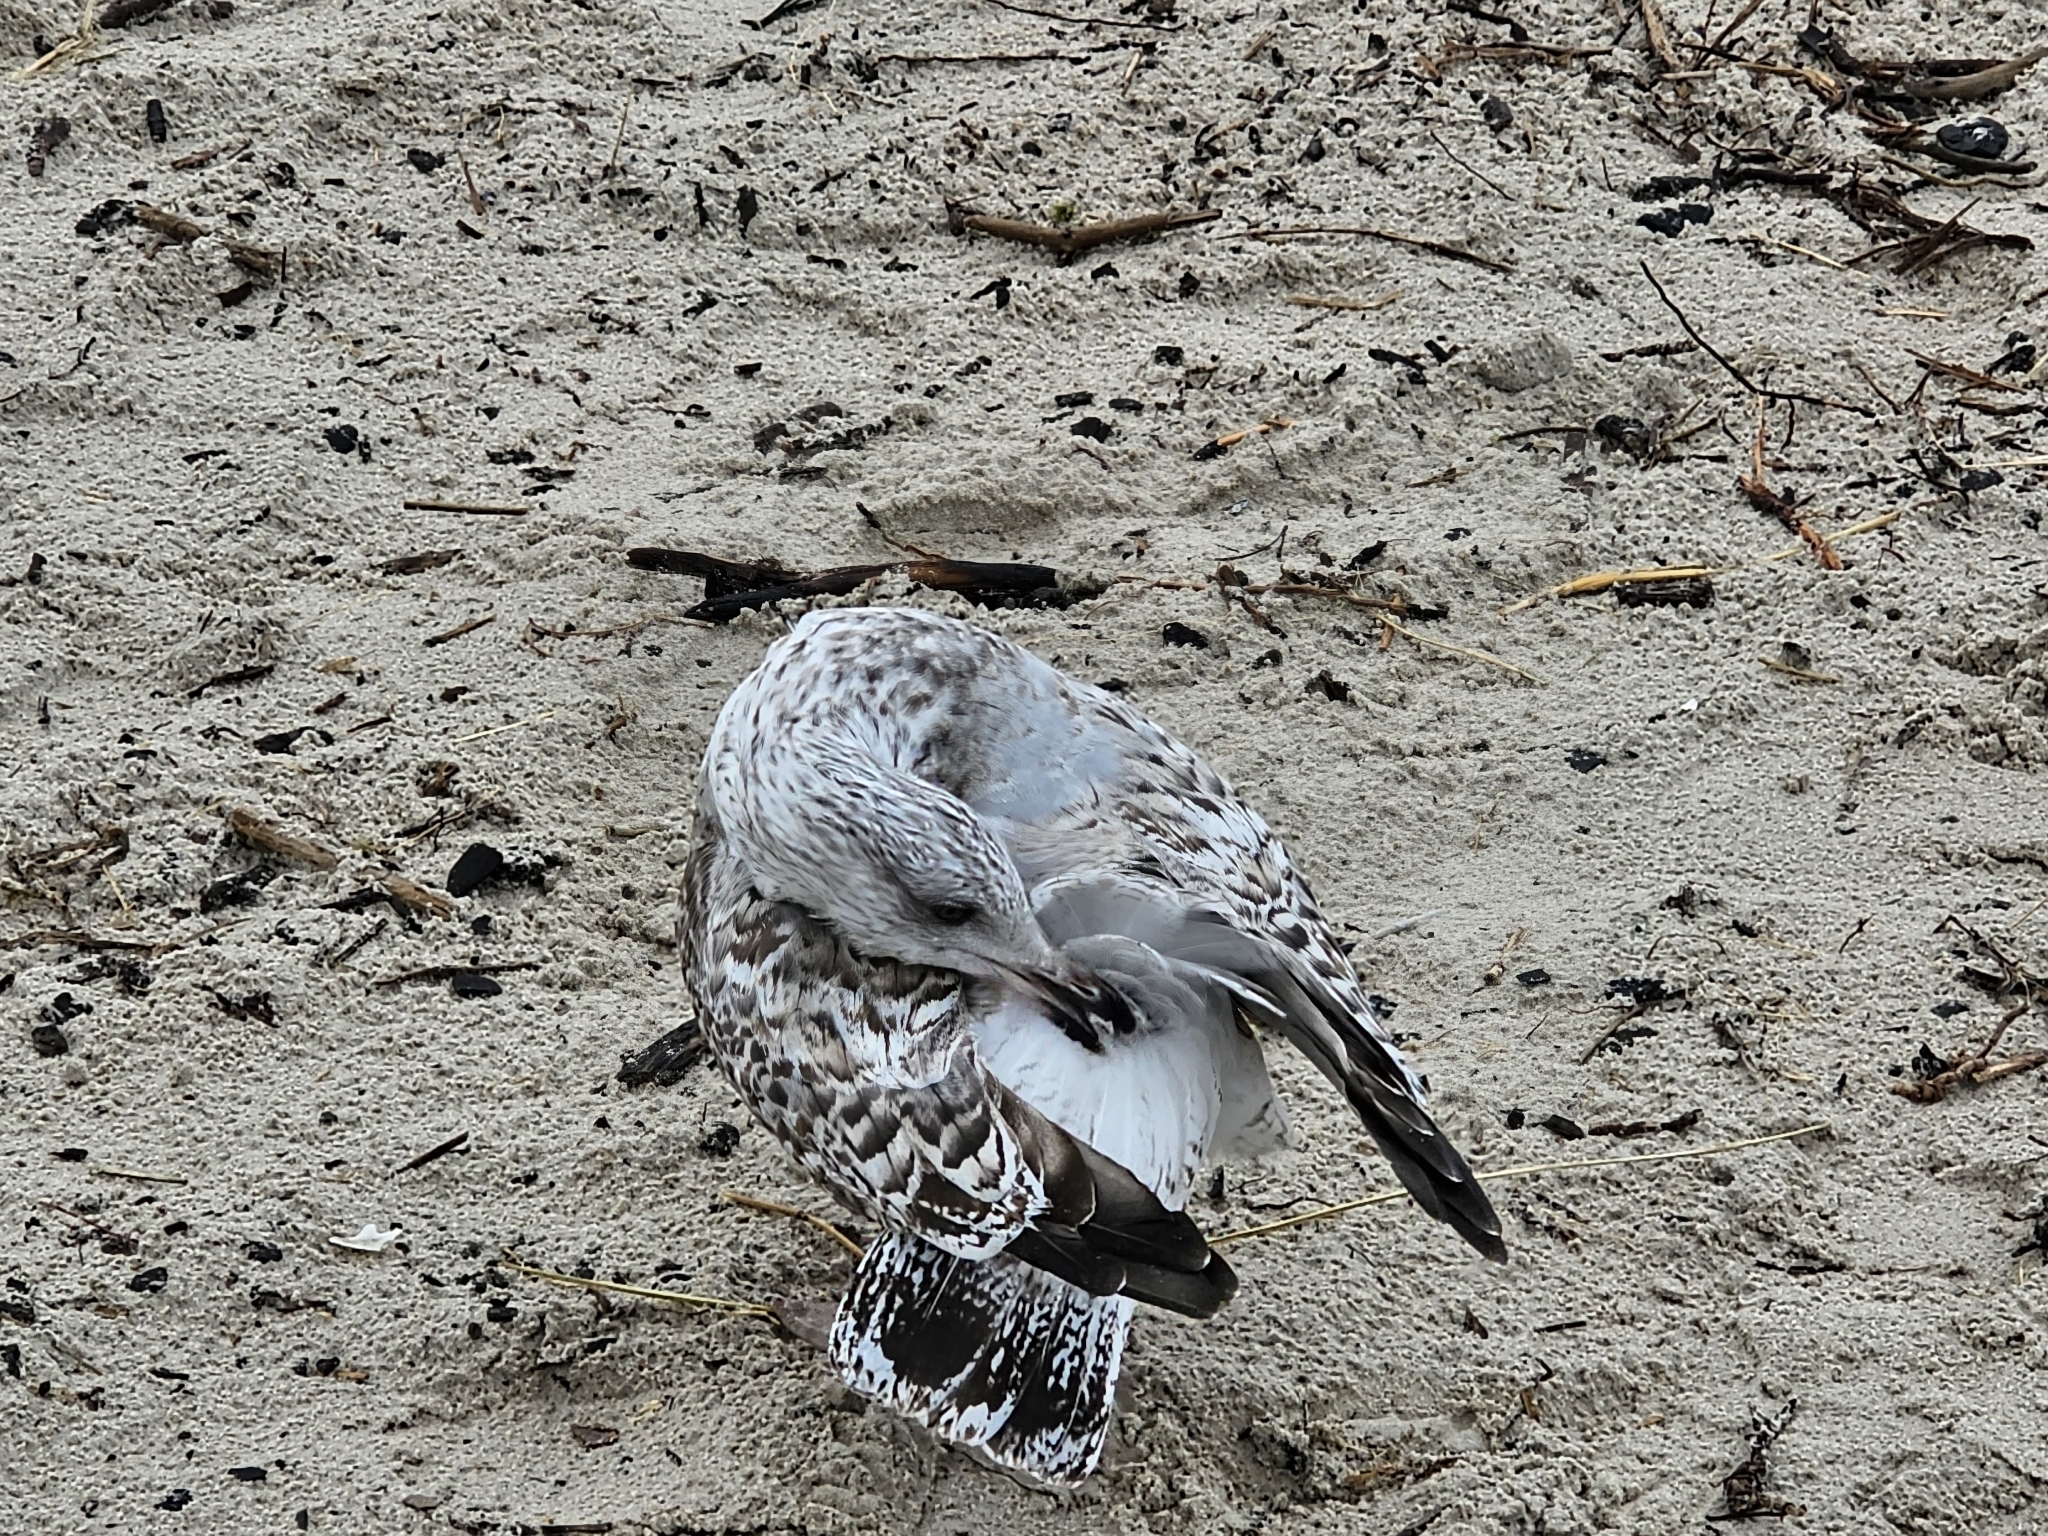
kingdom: Animalia
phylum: Chordata
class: Aves
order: Charadriiformes
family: Laridae
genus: Larus
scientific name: Larus argentatus
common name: Herring gull
